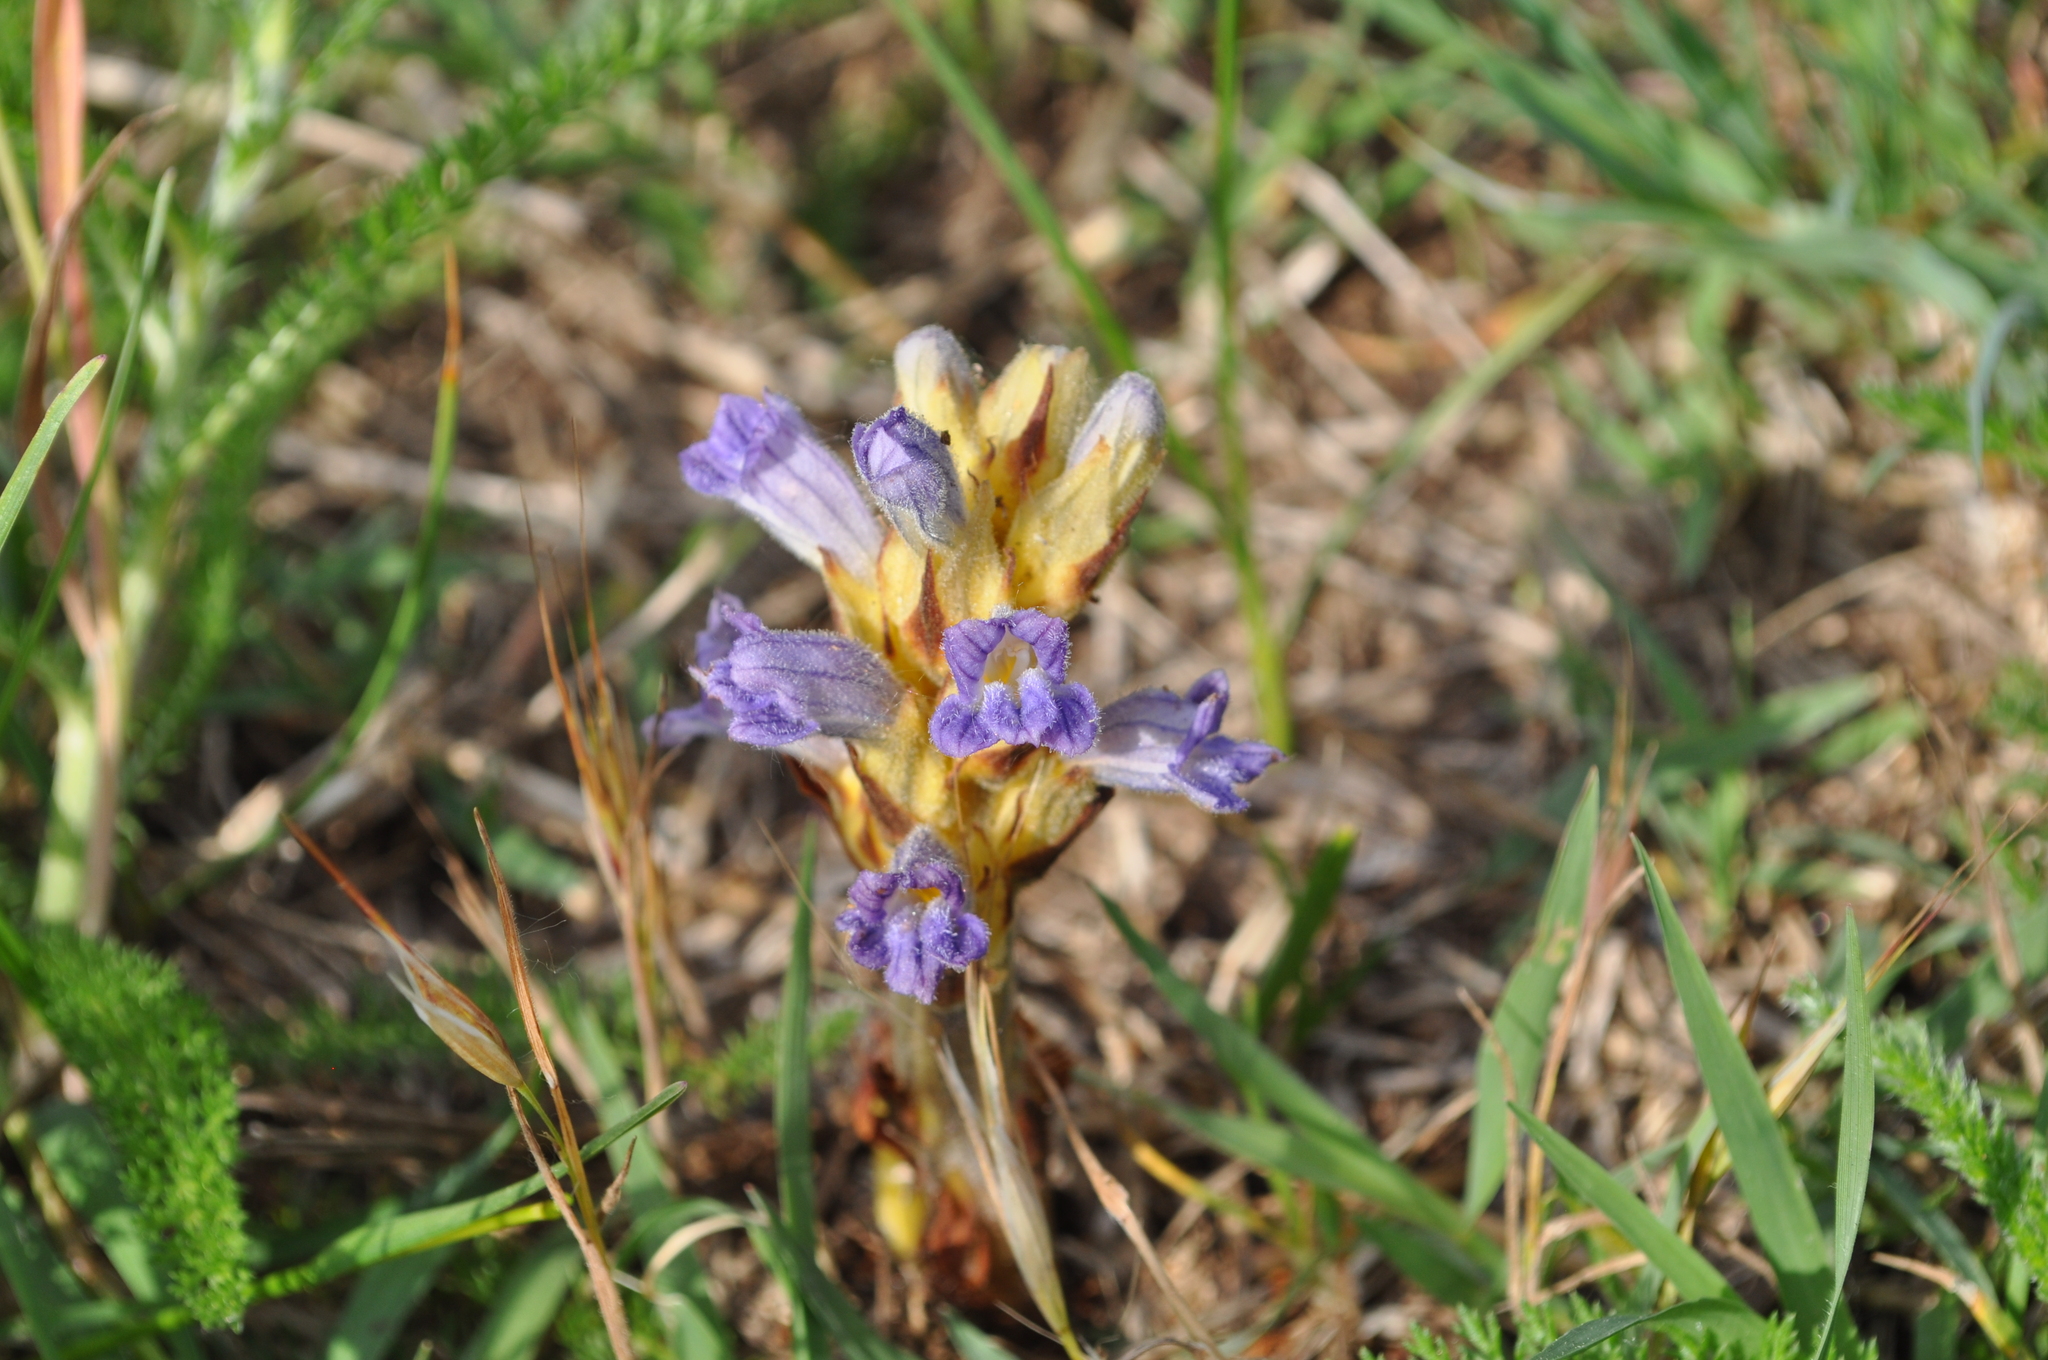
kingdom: Plantae
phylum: Tracheophyta
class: Magnoliopsida
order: Lamiales
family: Orobanchaceae
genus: Phelipanche
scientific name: Phelipanche purpurea
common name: Purple broomrape
